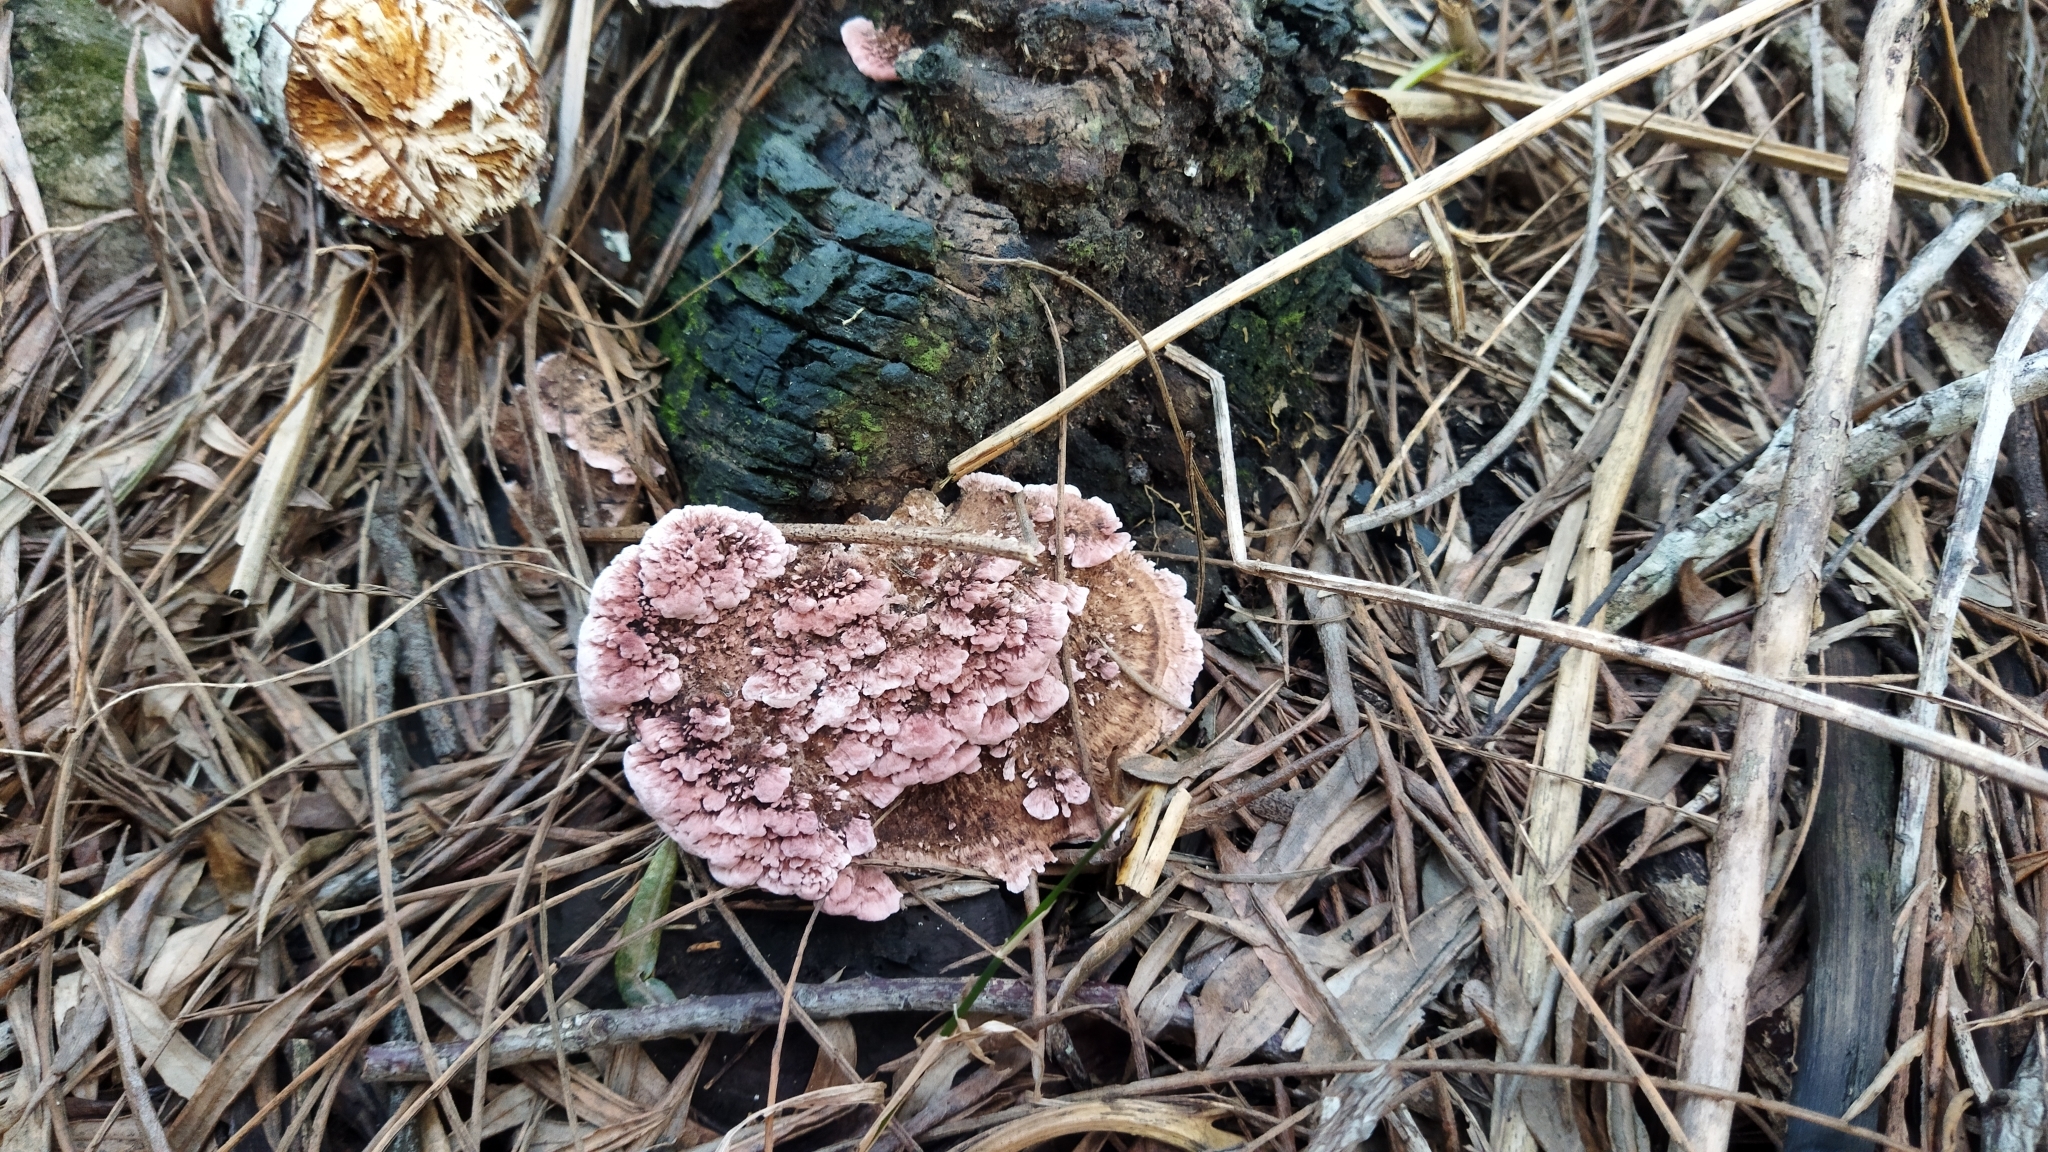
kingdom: Fungi
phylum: Basidiomycota
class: Agaricomycetes
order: Polyporales
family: Fomitopsidaceae
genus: Rhodofomitopsis
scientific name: Rhodofomitopsis lilacinogilva
